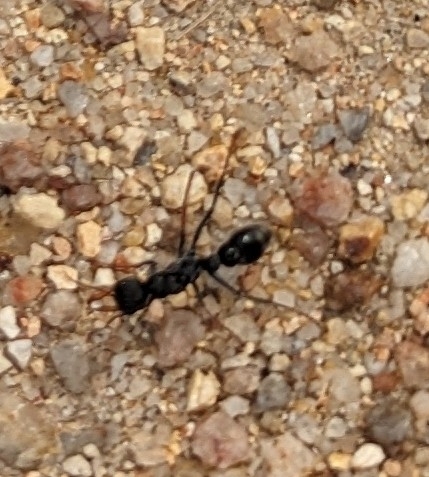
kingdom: Animalia
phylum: Arthropoda
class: Insecta
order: Hymenoptera
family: Formicidae
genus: Myrmecia
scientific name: Myrmecia pilosula
